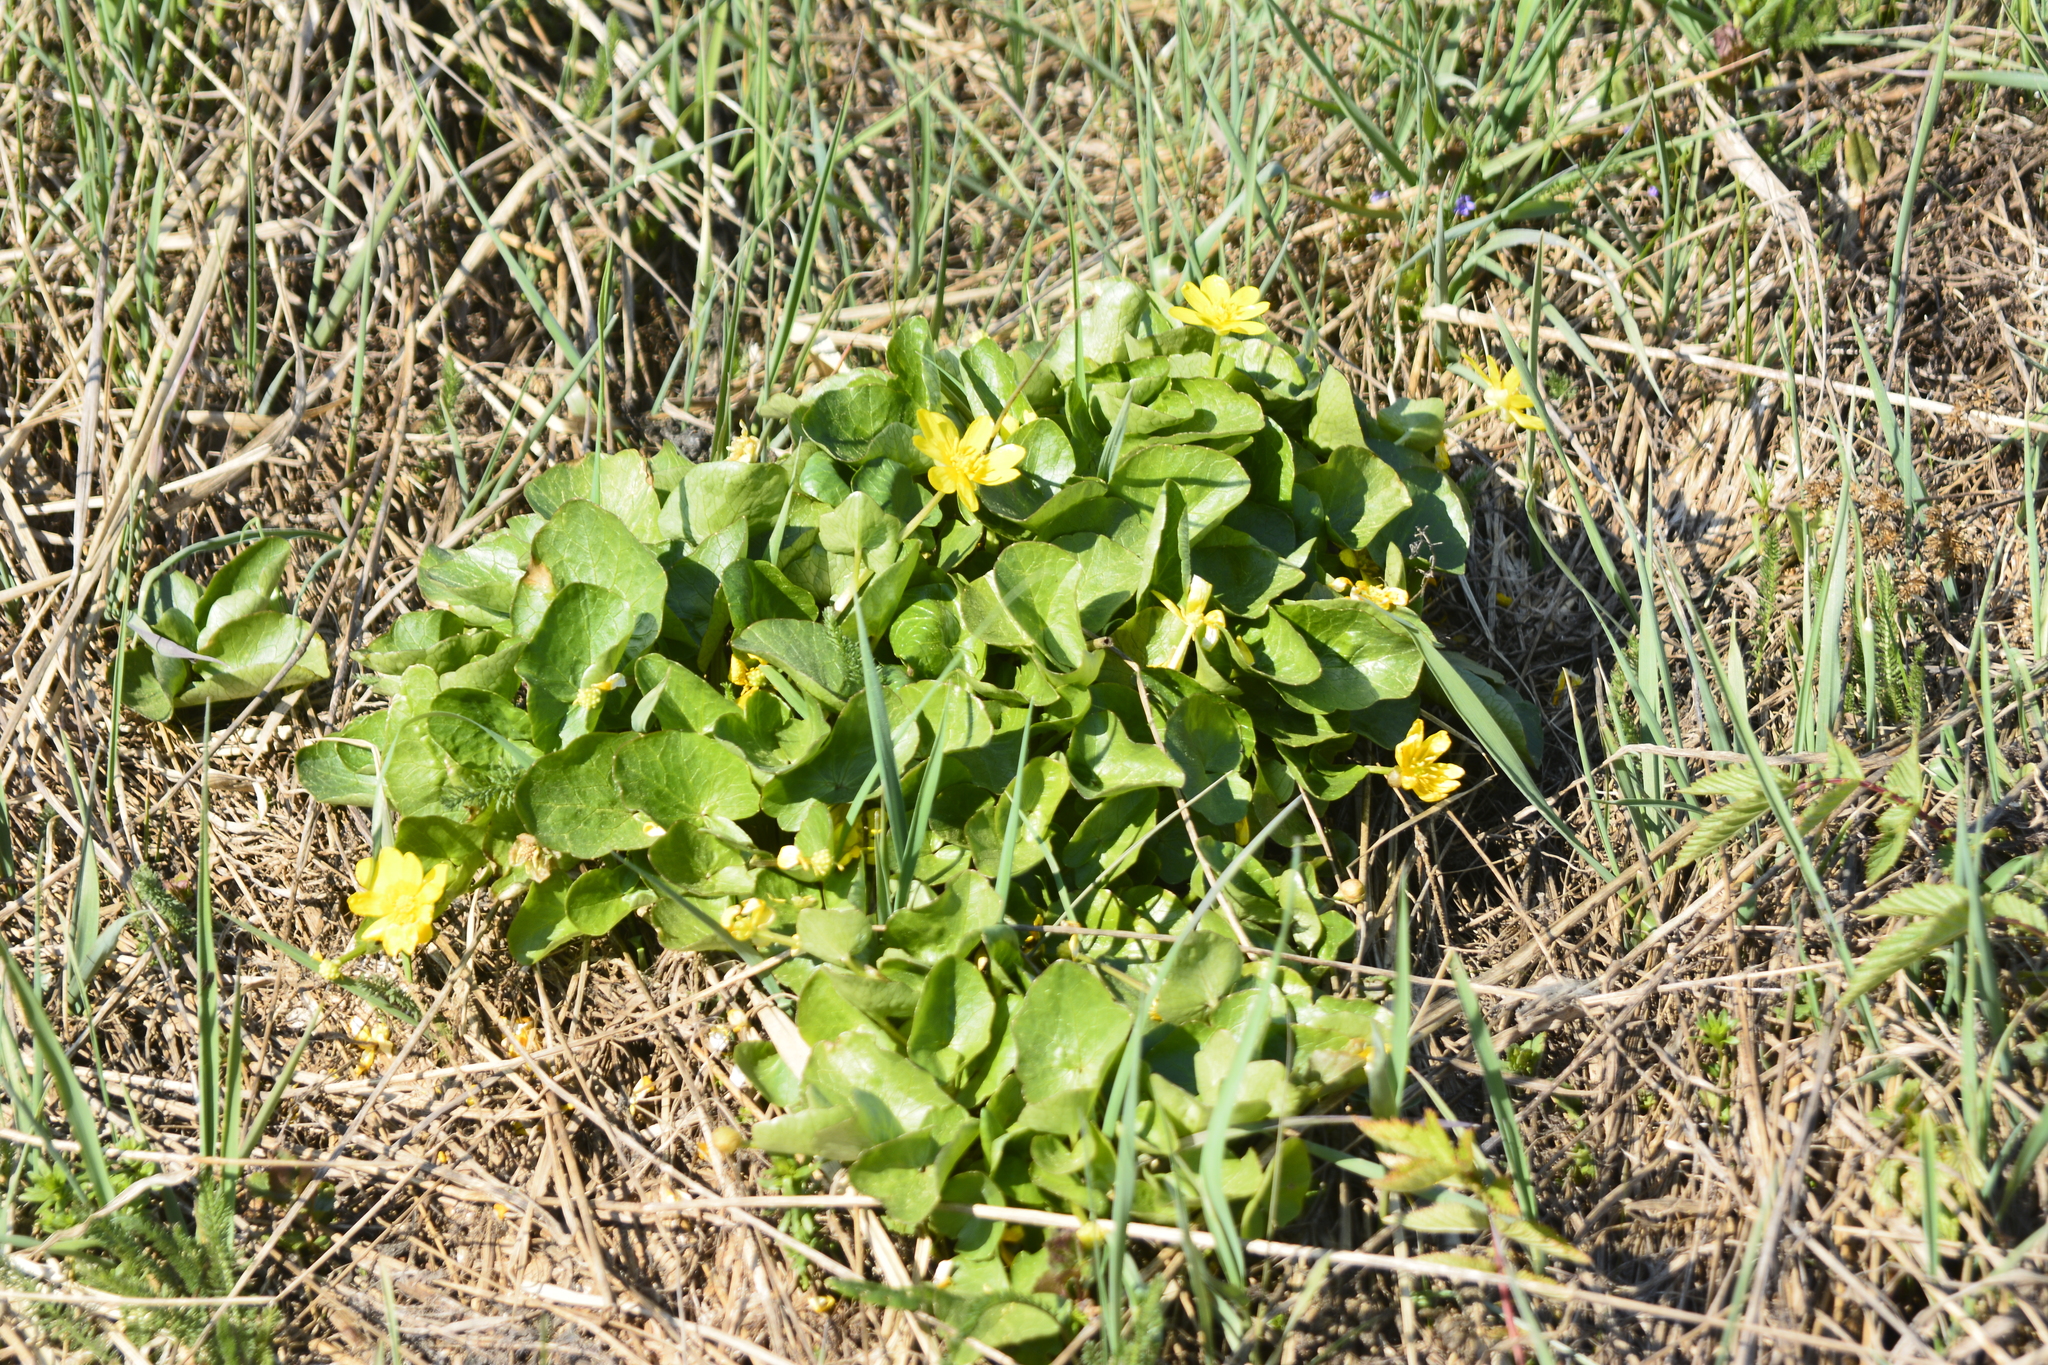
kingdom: Plantae
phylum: Tracheophyta
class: Magnoliopsida
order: Ranunculales
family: Ranunculaceae
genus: Ficaria
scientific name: Ficaria verna
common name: Lesser celandine
